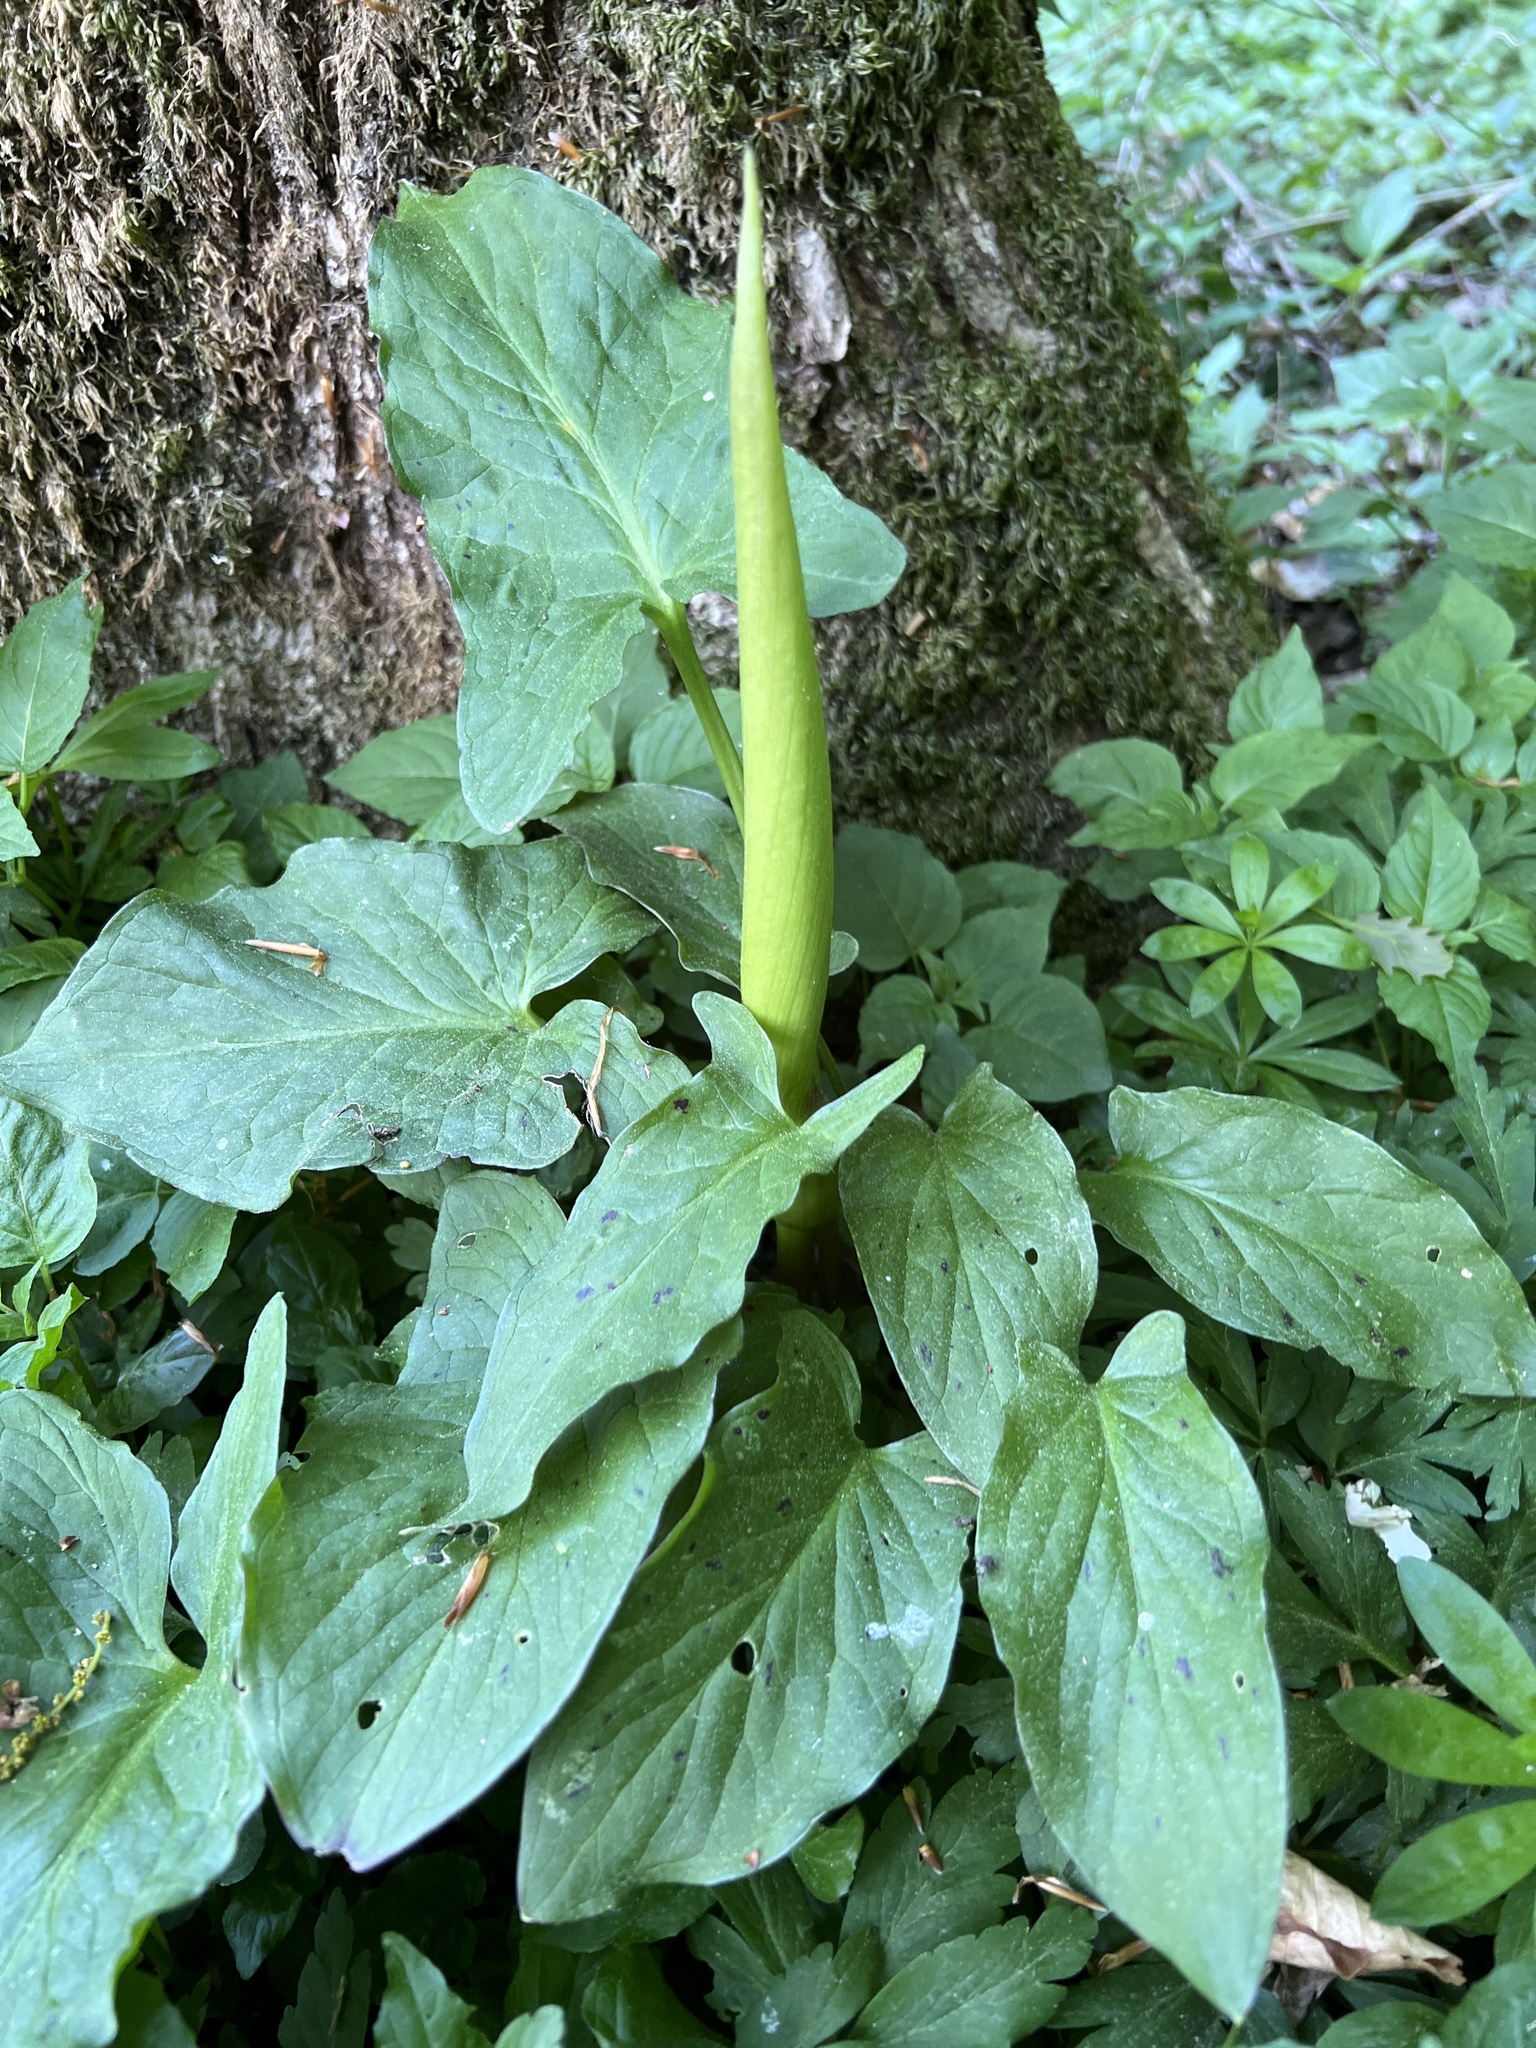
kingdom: Plantae
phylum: Tracheophyta
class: Liliopsida
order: Alismatales
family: Araceae
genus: Arum
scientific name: Arum maculatum
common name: Lords-and-ladies
